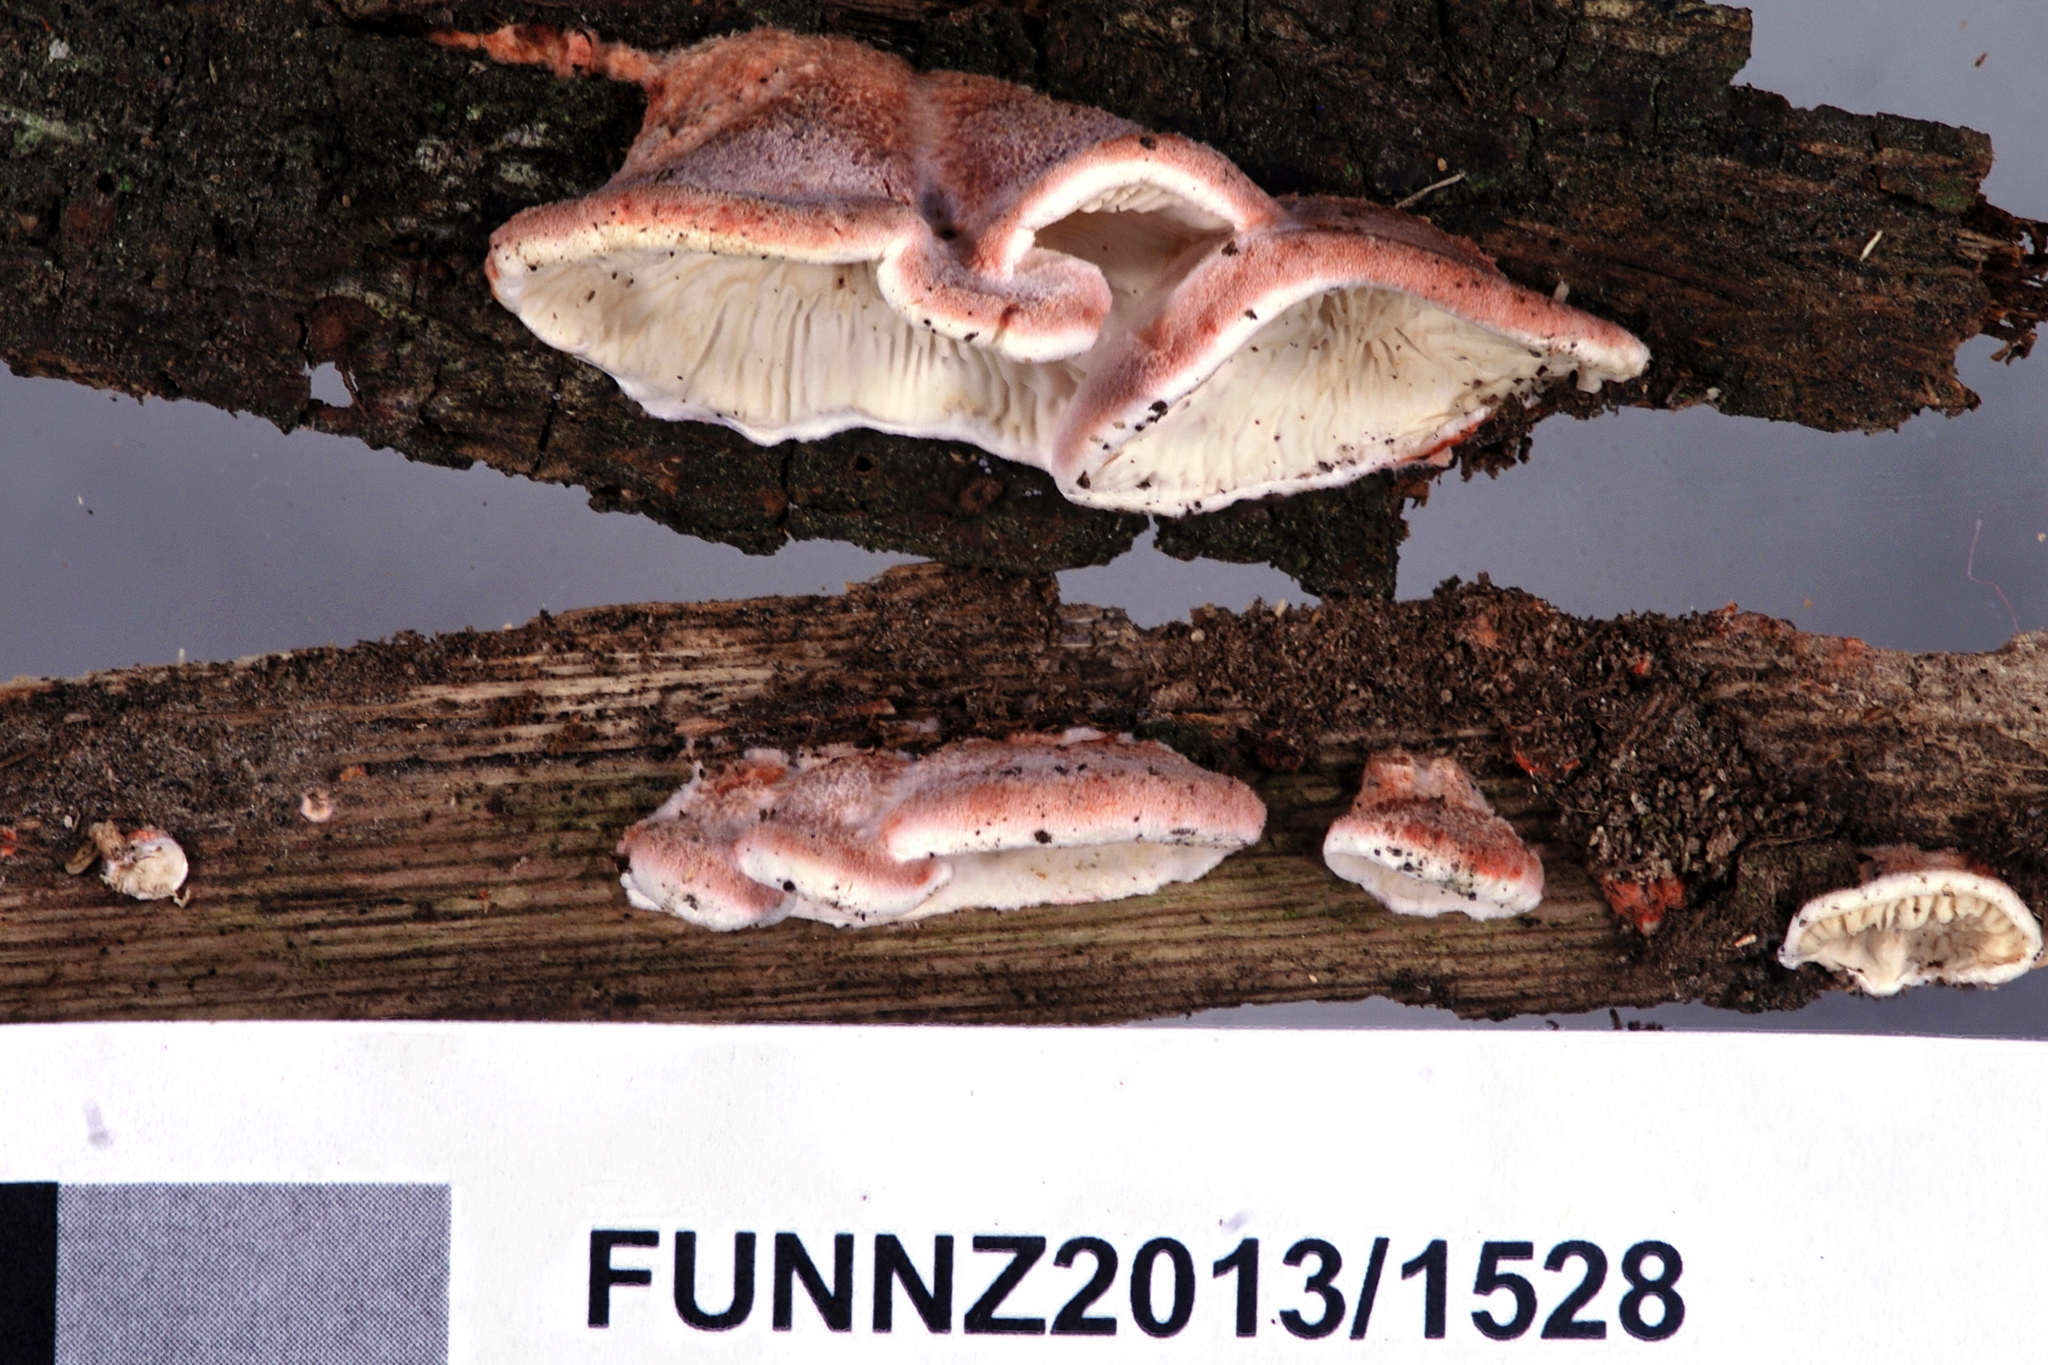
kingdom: Fungi
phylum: Basidiomycota
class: Agaricomycetes
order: Polyporales
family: Meruliaceae
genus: Phlebia
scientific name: Phlebia
